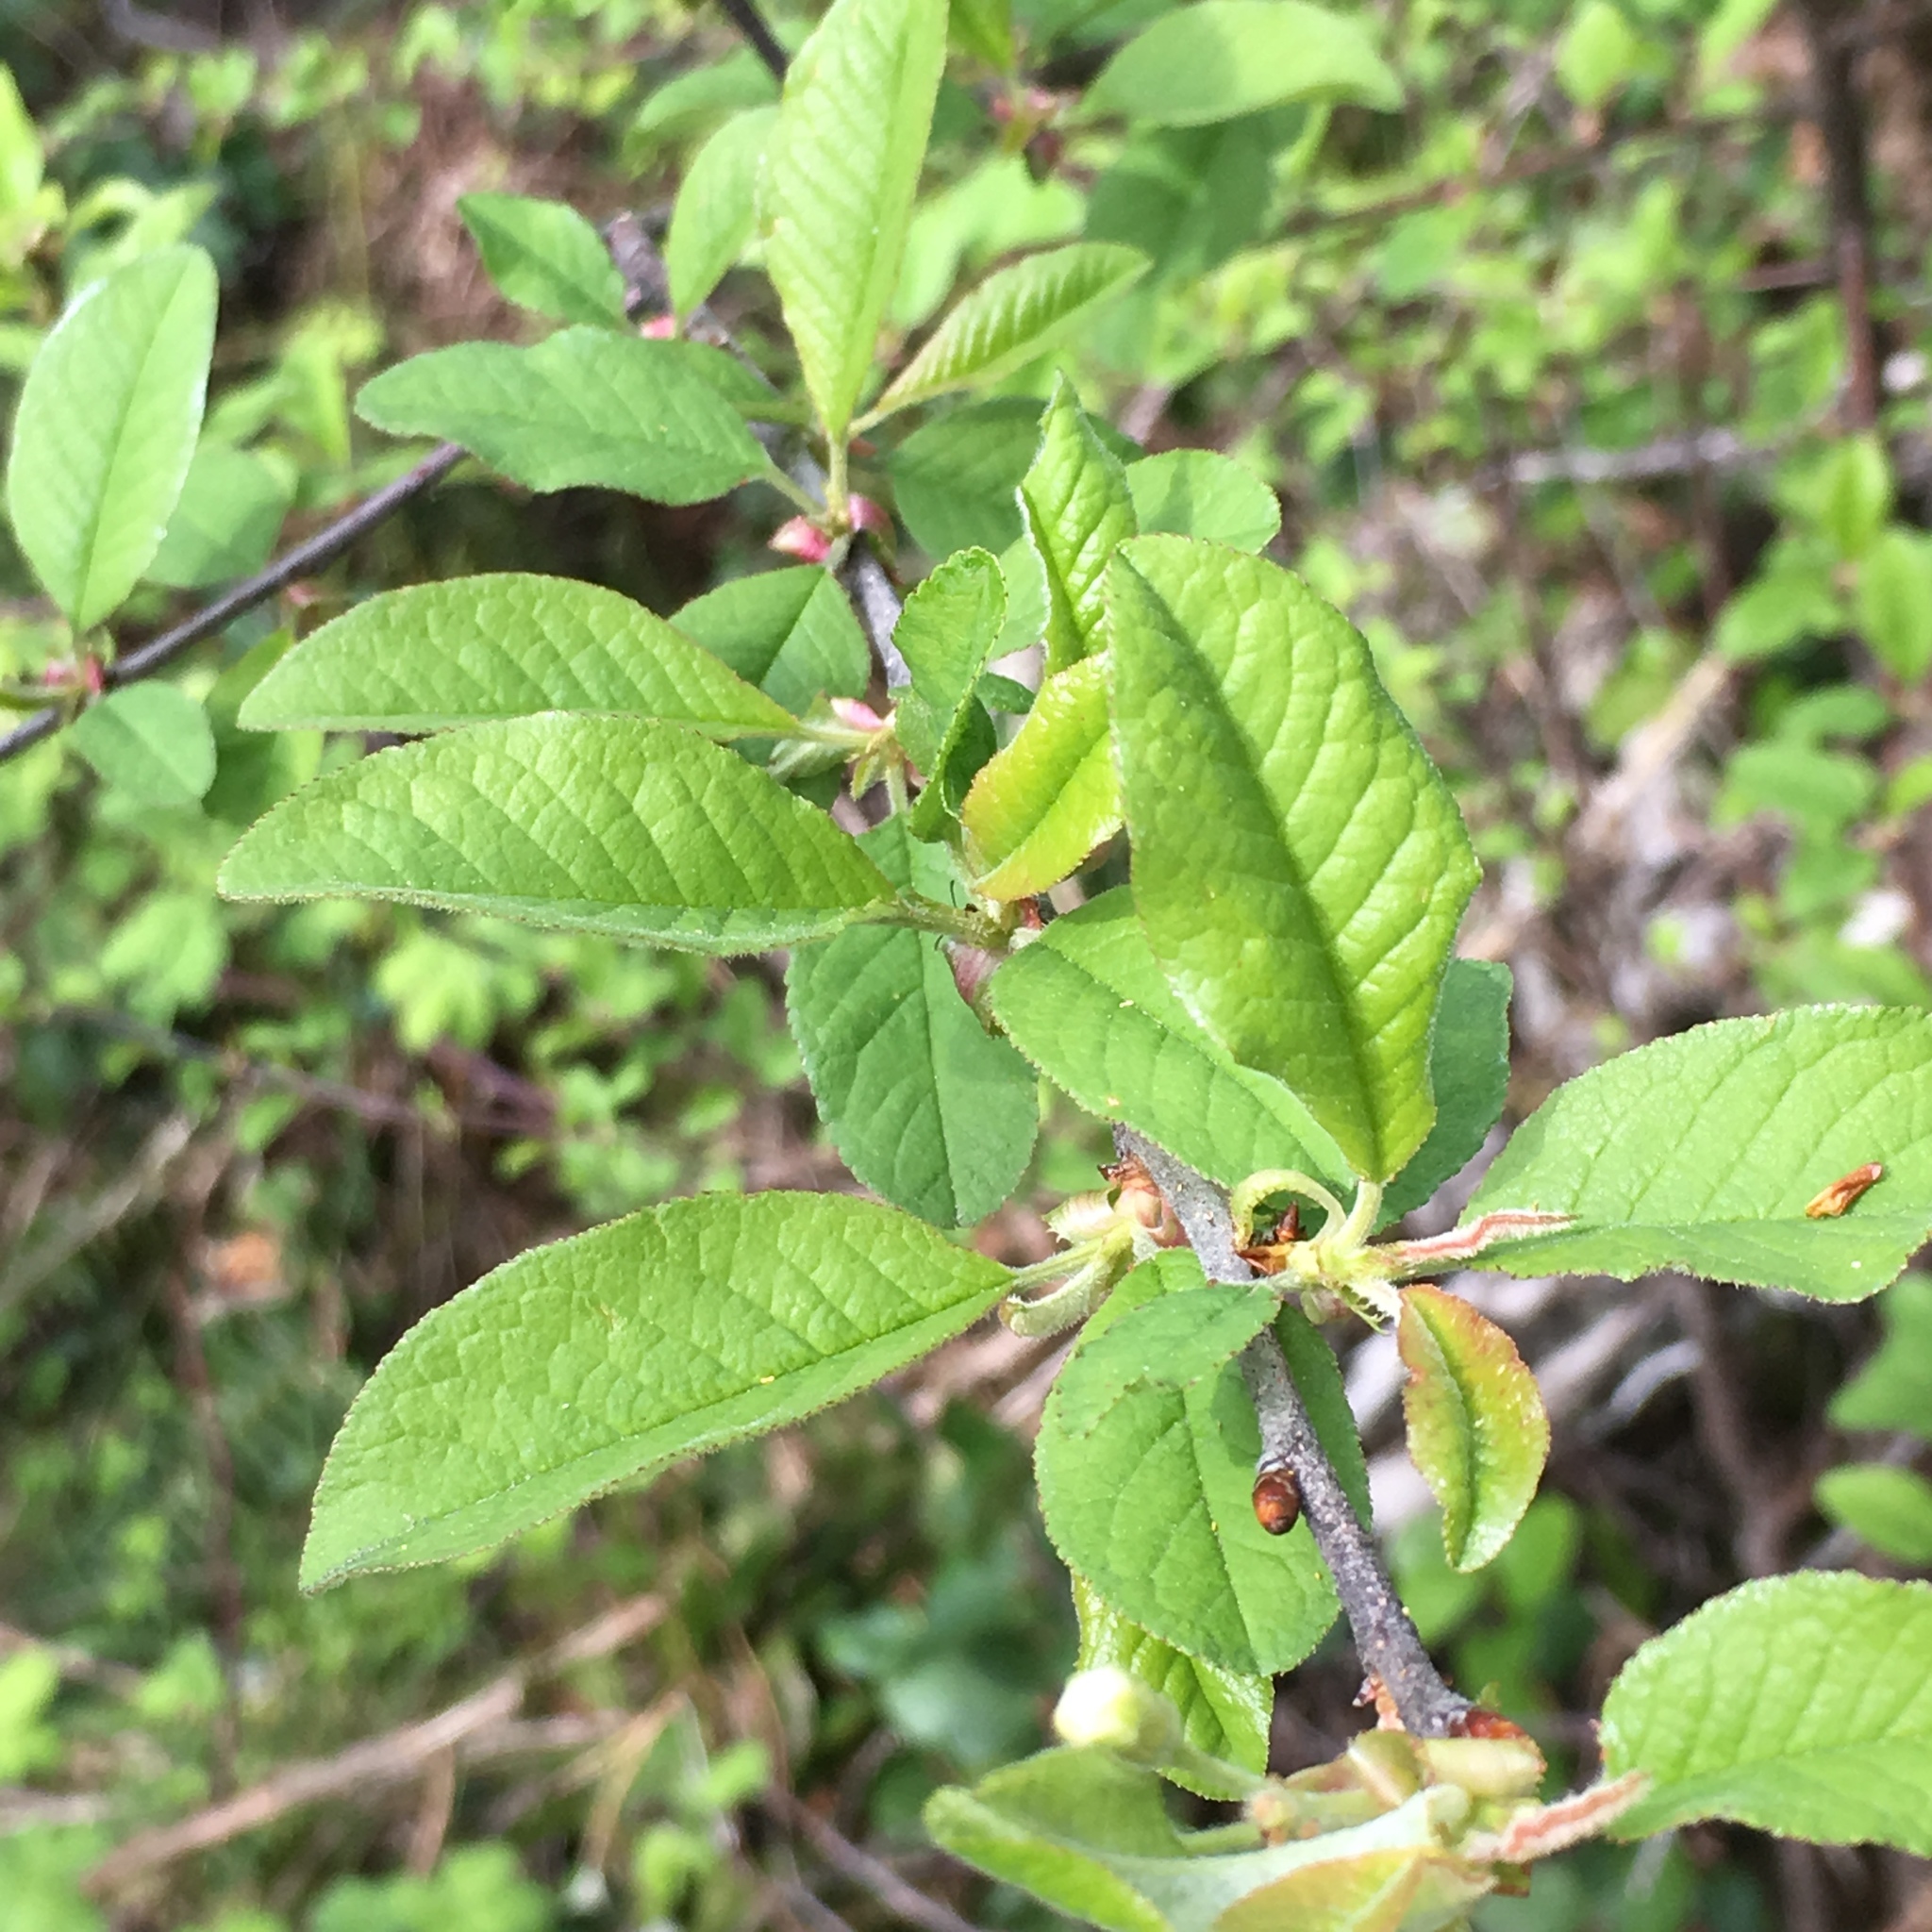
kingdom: Plantae
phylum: Tracheophyta
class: Magnoliopsida
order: Rosales
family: Rosaceae
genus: Prunus
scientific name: Prunus emarginata
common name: Bitter cherry
